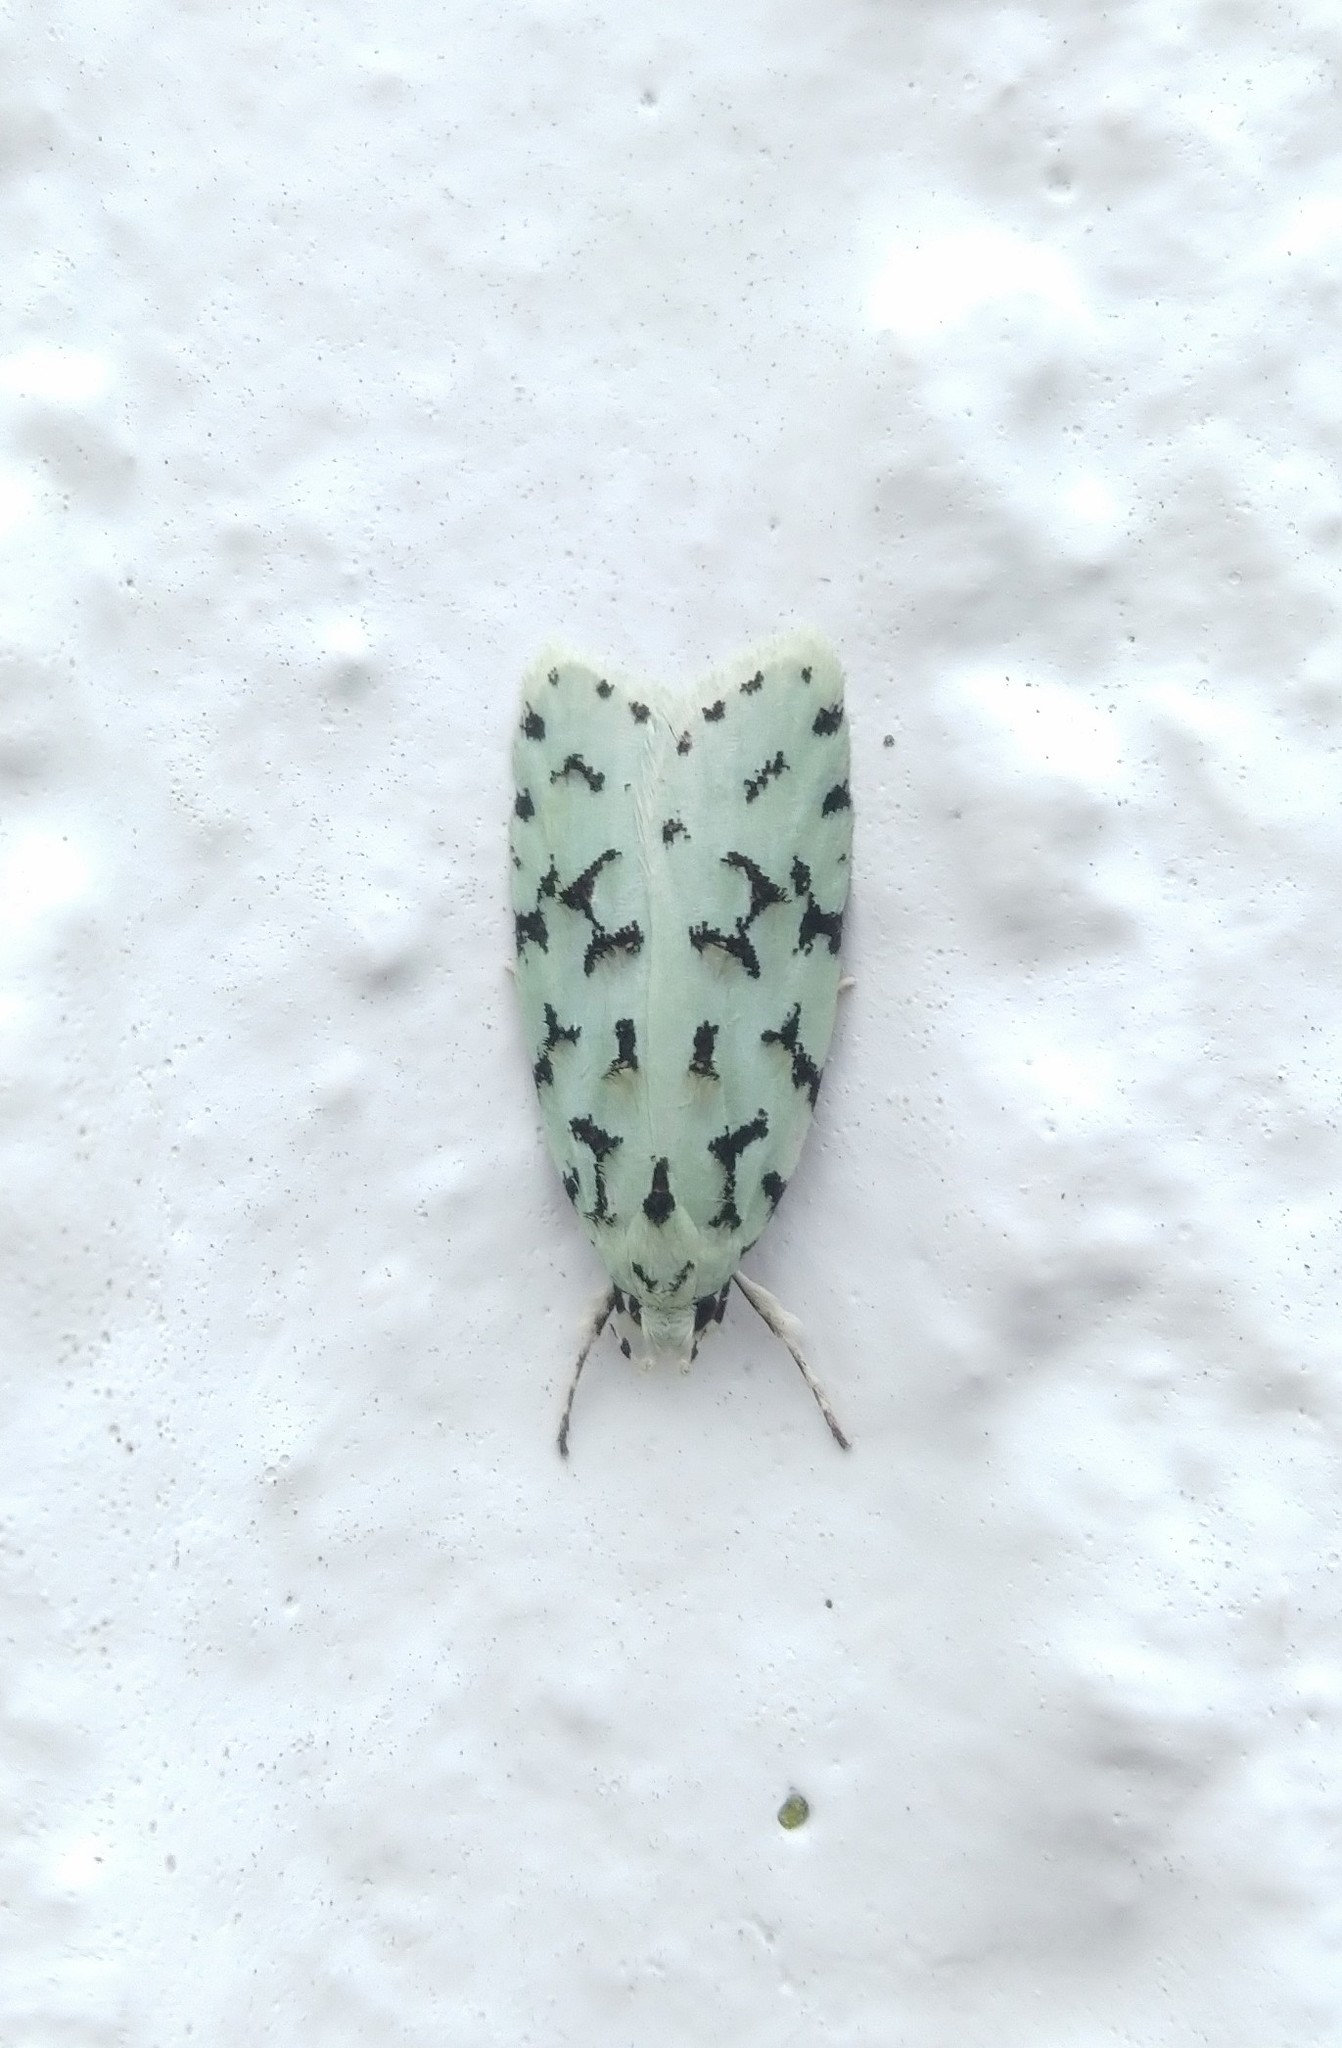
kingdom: Animalia
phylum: Arthropoda
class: Insecta
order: Lepidoptera
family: Oecophoridae
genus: Izatha
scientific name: Izatha huttoni
